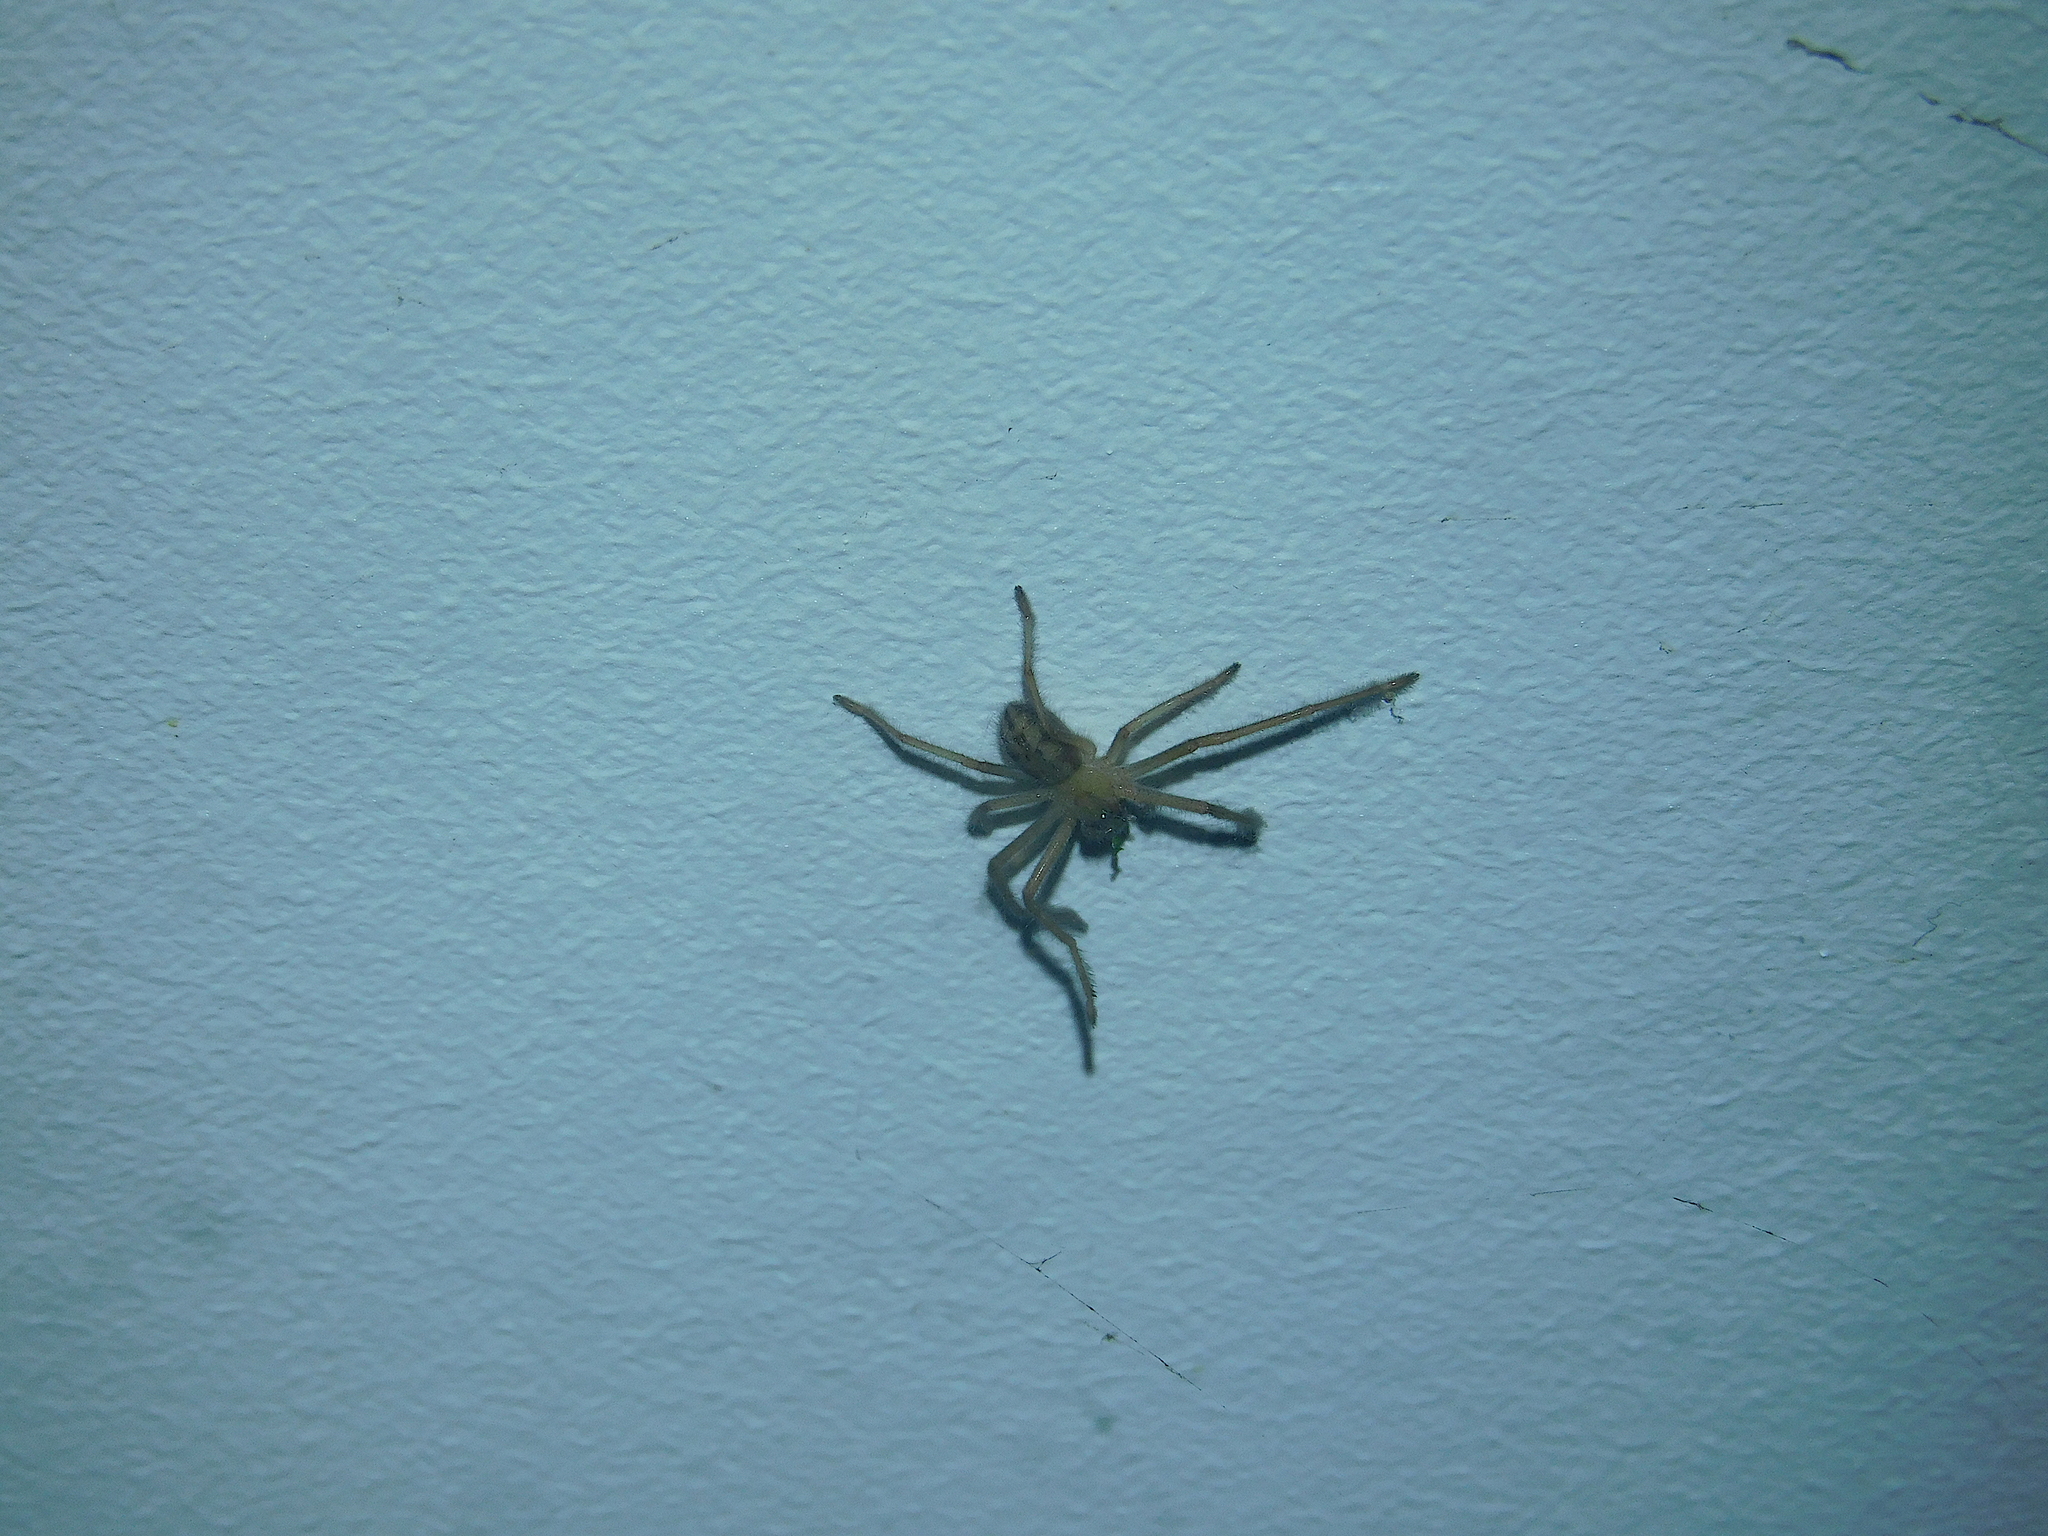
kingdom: Animalia
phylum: Arthropoda
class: Arachnida
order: Araneae
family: Sparassidae
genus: Delena
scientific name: Delena cancerides
